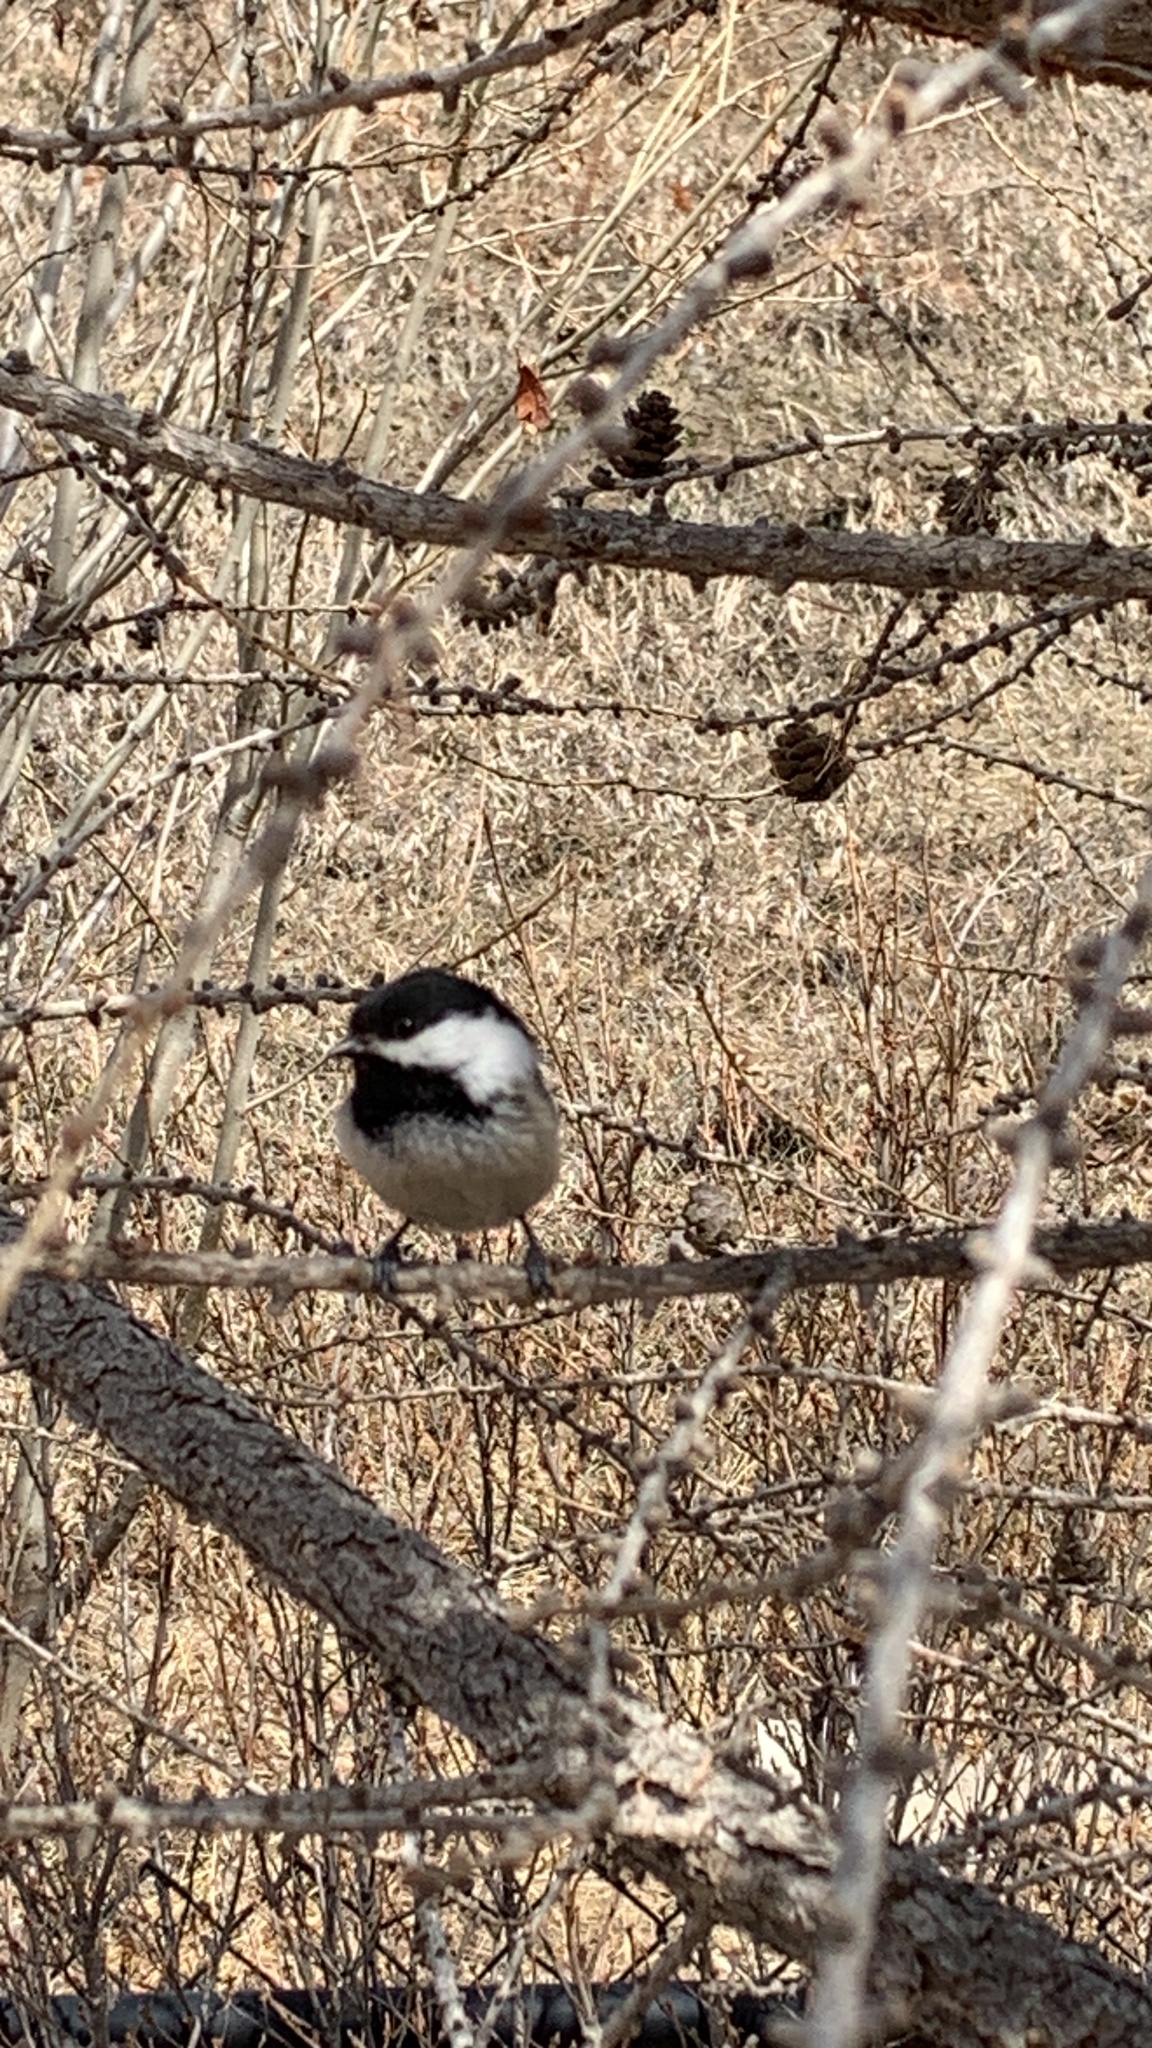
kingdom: Animalia
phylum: Chordata
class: Aves
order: Passeriformes
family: Paridae
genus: Poecile
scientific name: Poecile atricapillus
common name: Black-capped chickadee
